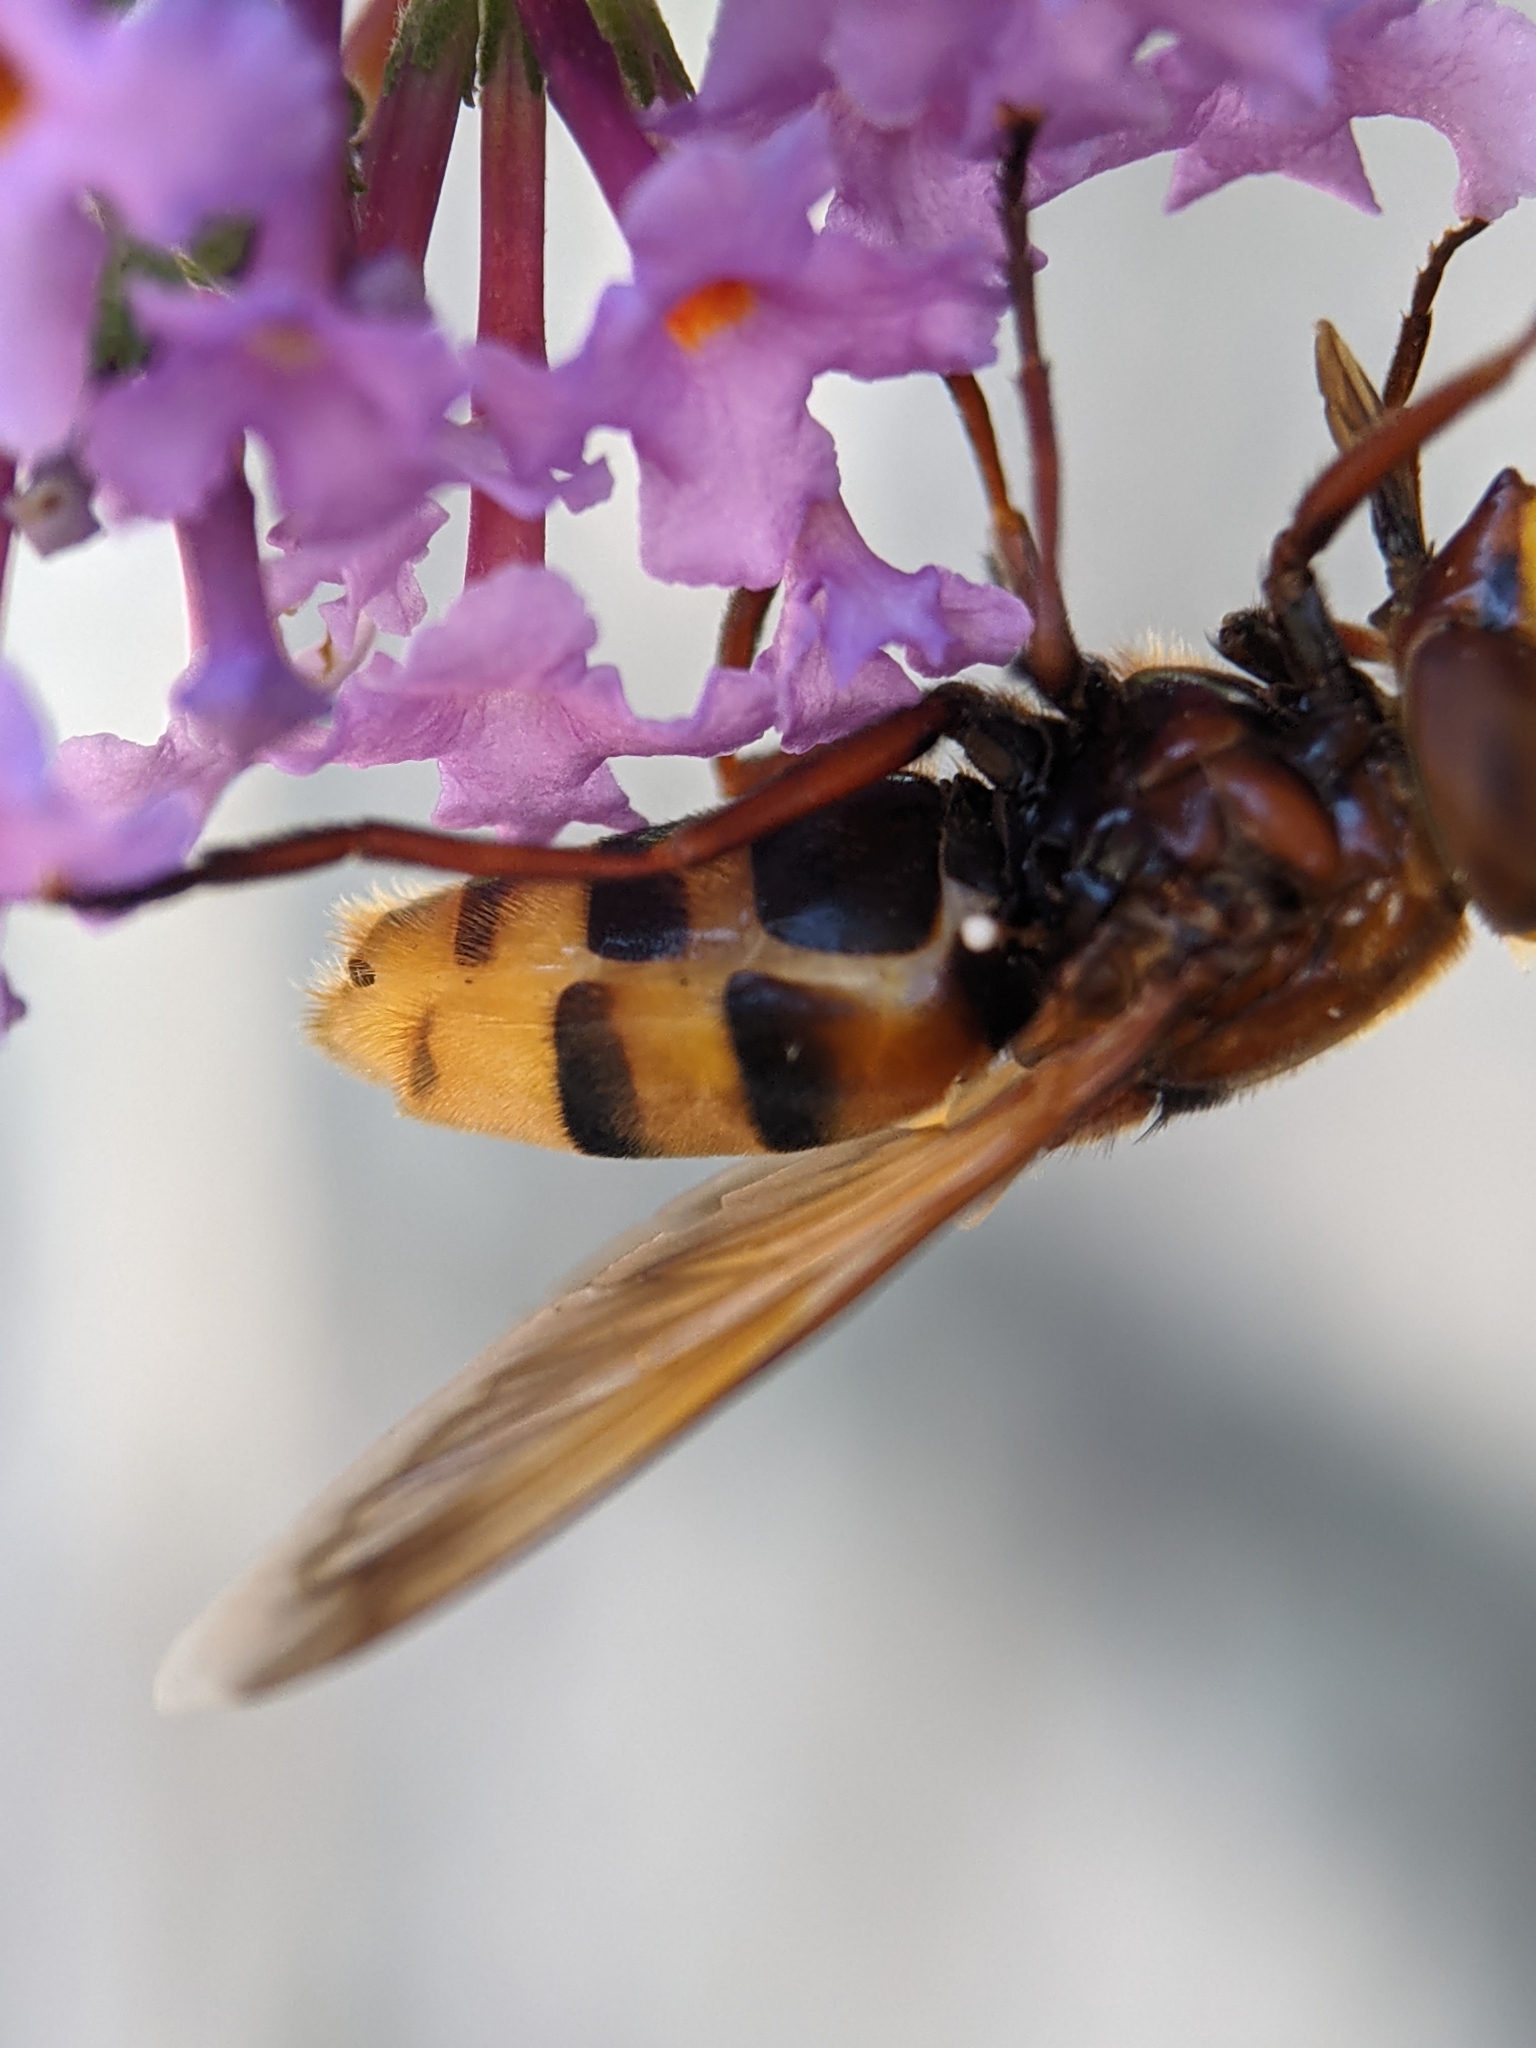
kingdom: Animalia
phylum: Arthropoda
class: Insecta
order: Diptera
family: Syrphidae
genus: Volucella
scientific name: Volucella zonaria
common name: Hornet hoverfly
